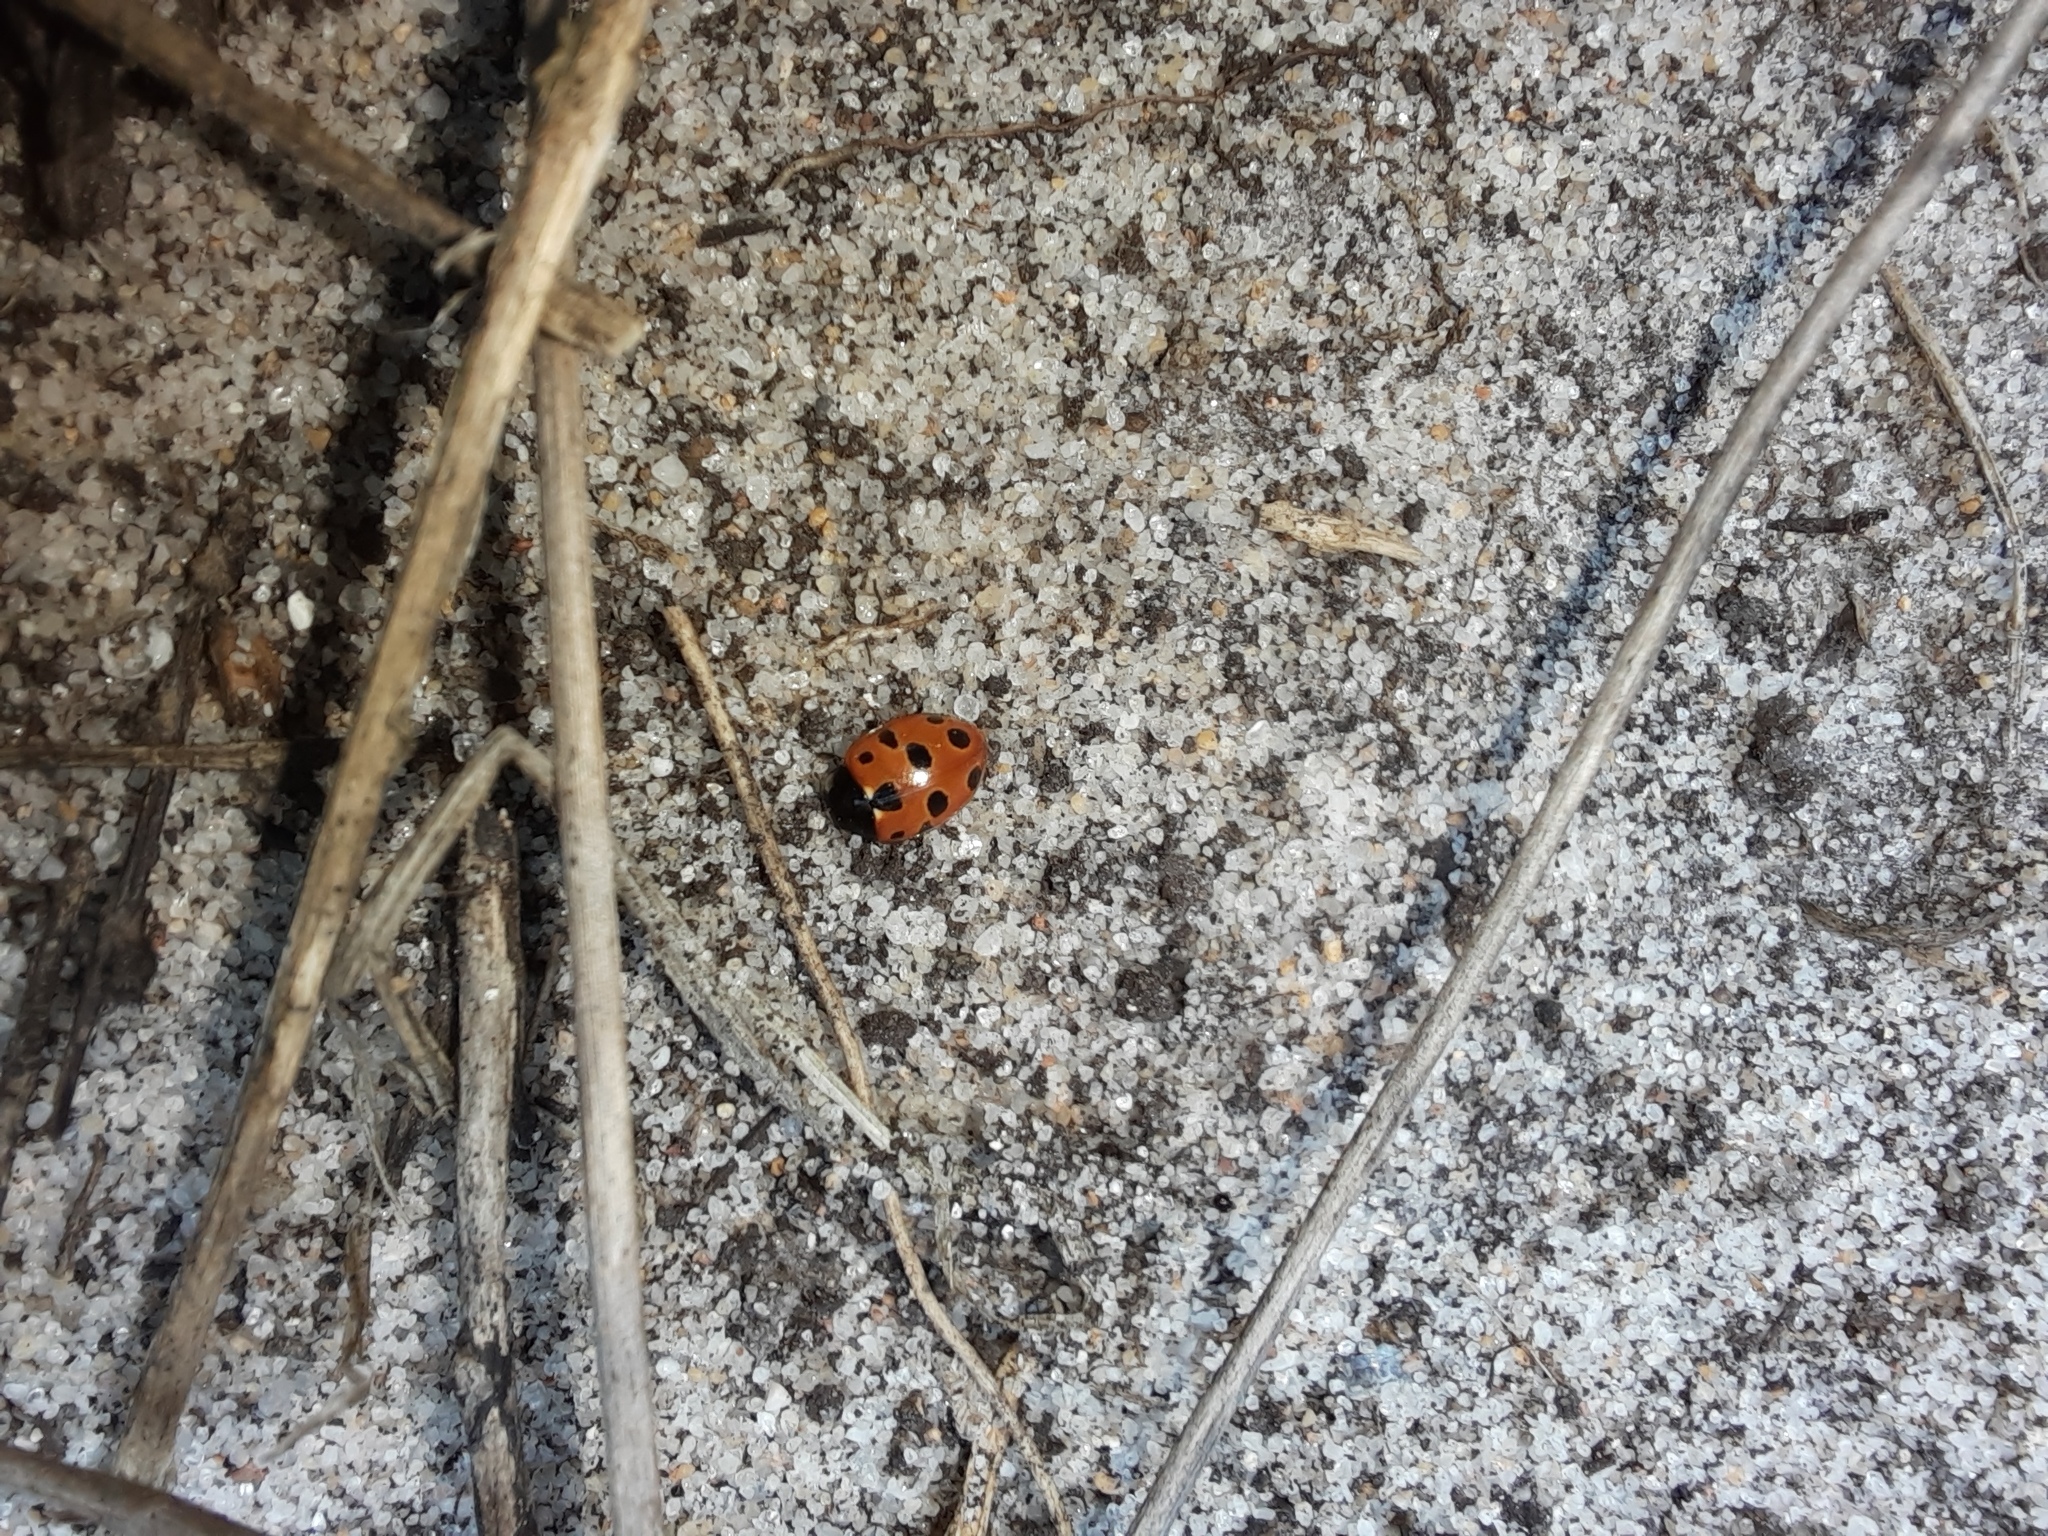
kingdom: Animalia
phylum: Arthropoda
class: Insecta
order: Coleoptera
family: Coccinellidae
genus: Hippodamia
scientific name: Hippodamia variegata
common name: Ladybird beetle
